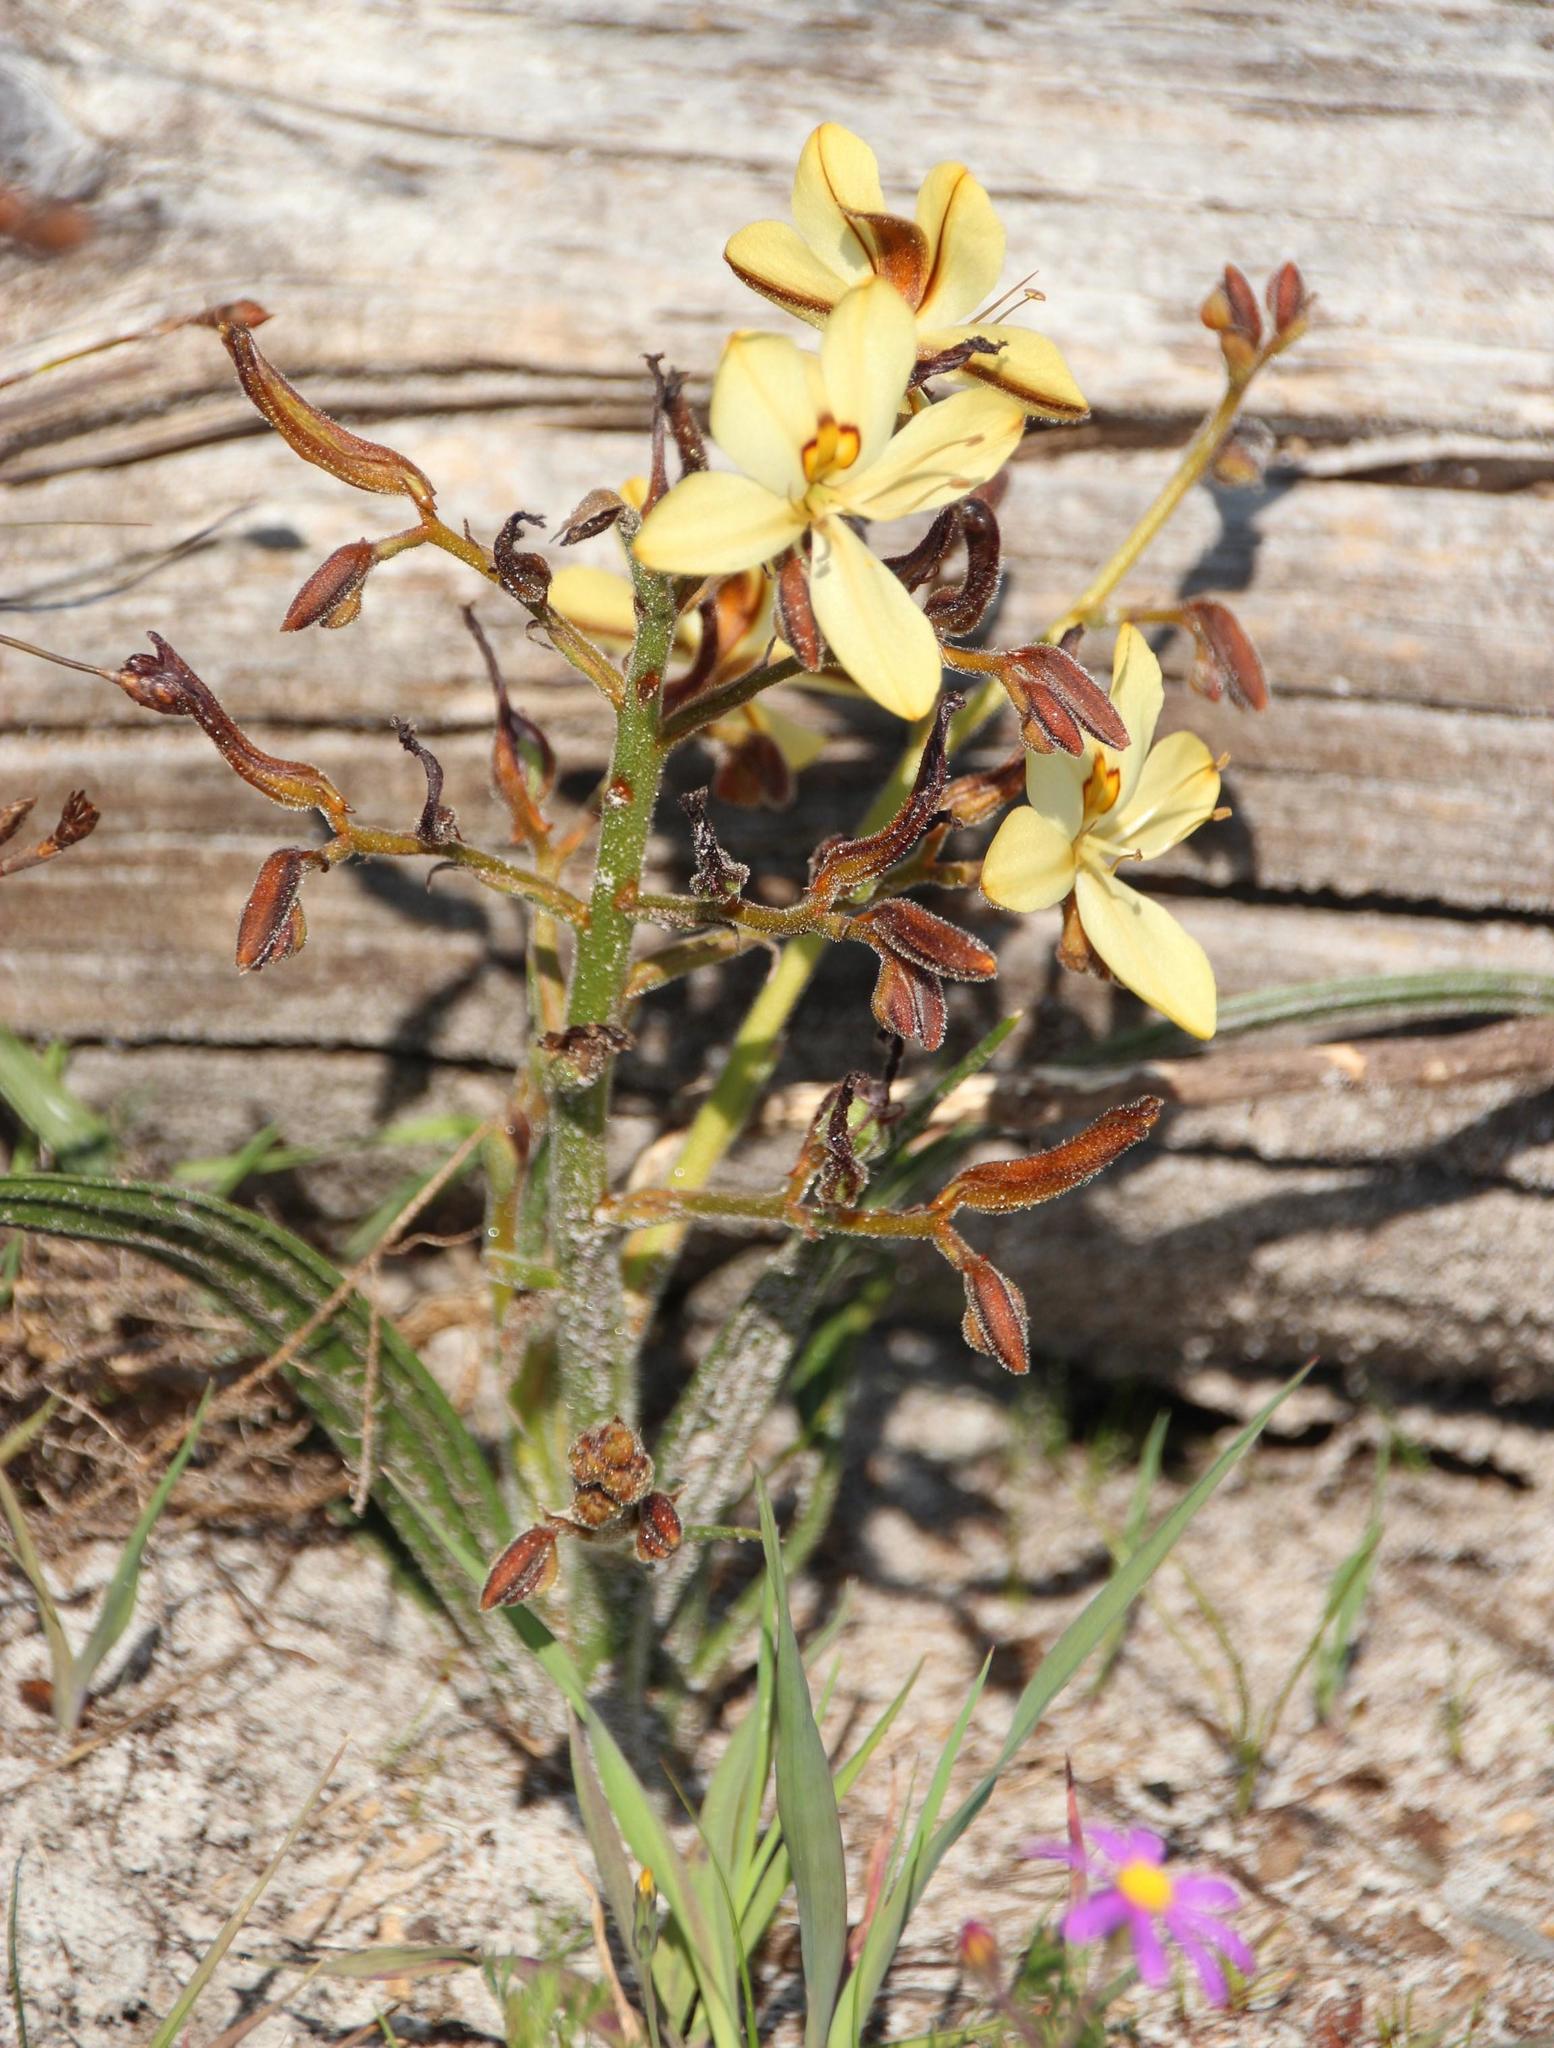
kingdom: Plantae
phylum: Tracheophyta
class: Liliopsida
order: Commelinales
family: Haemodoraceae
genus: Wachendorfia
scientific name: Wachendorfia paniculata
